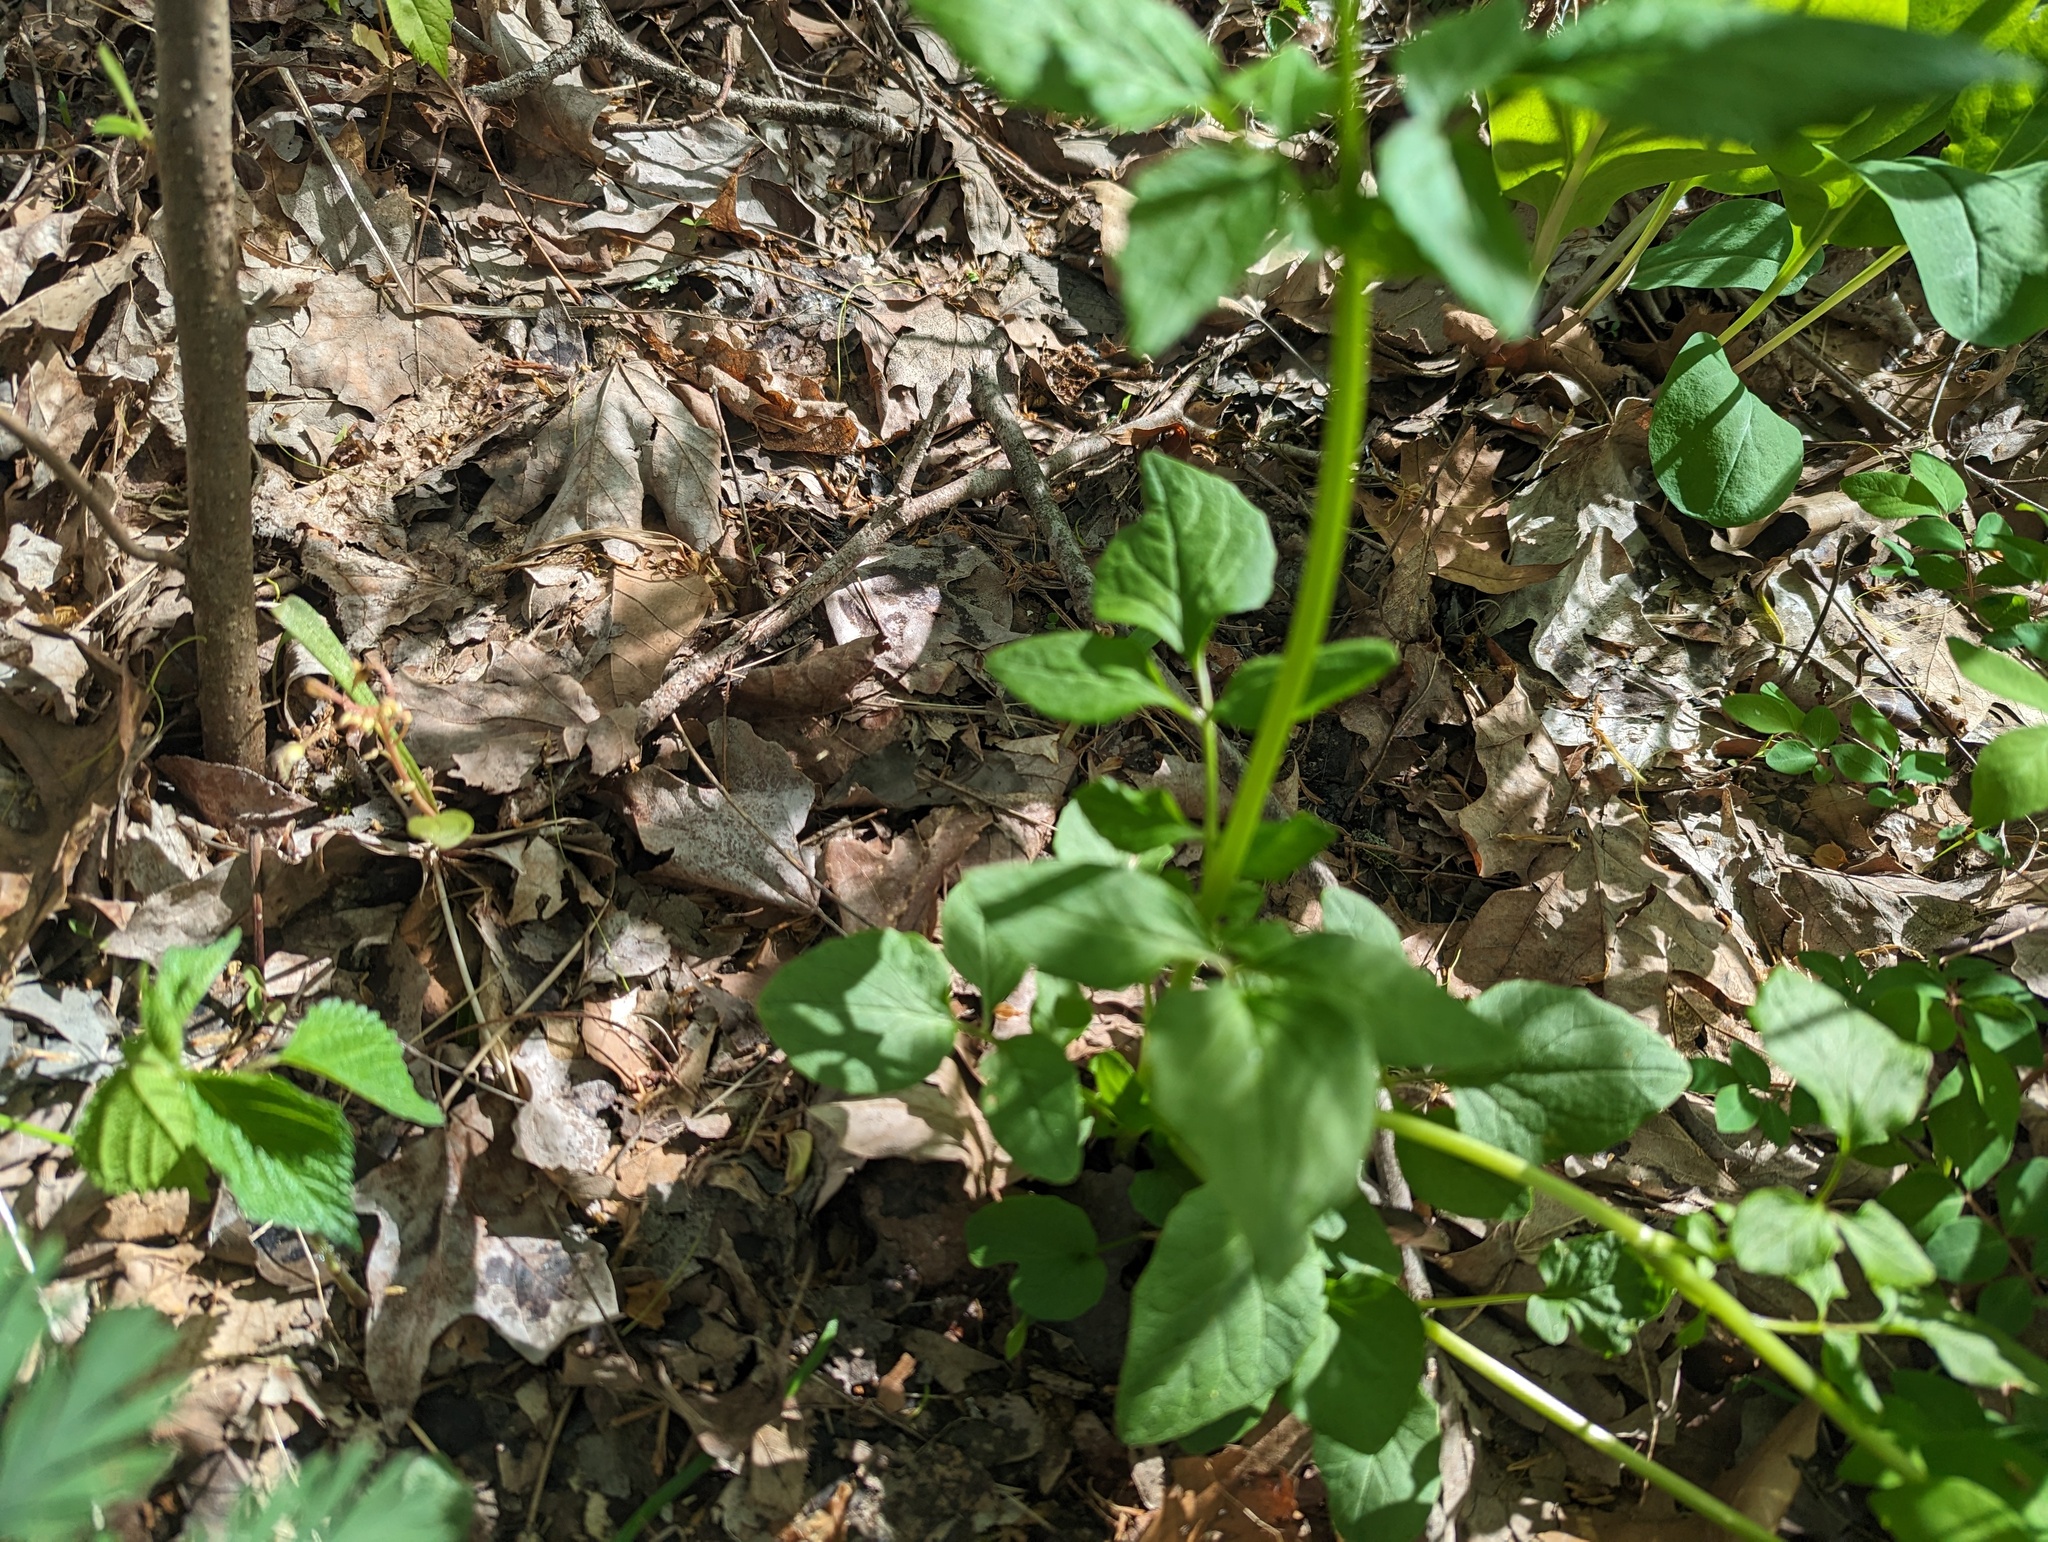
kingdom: Plantae
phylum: Tracheophyta
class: Magnoliopsida
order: Dipsacales
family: Caprifoliaceae
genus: Valeriana
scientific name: Valeriana pauciflora
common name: Long-tube valeriana
